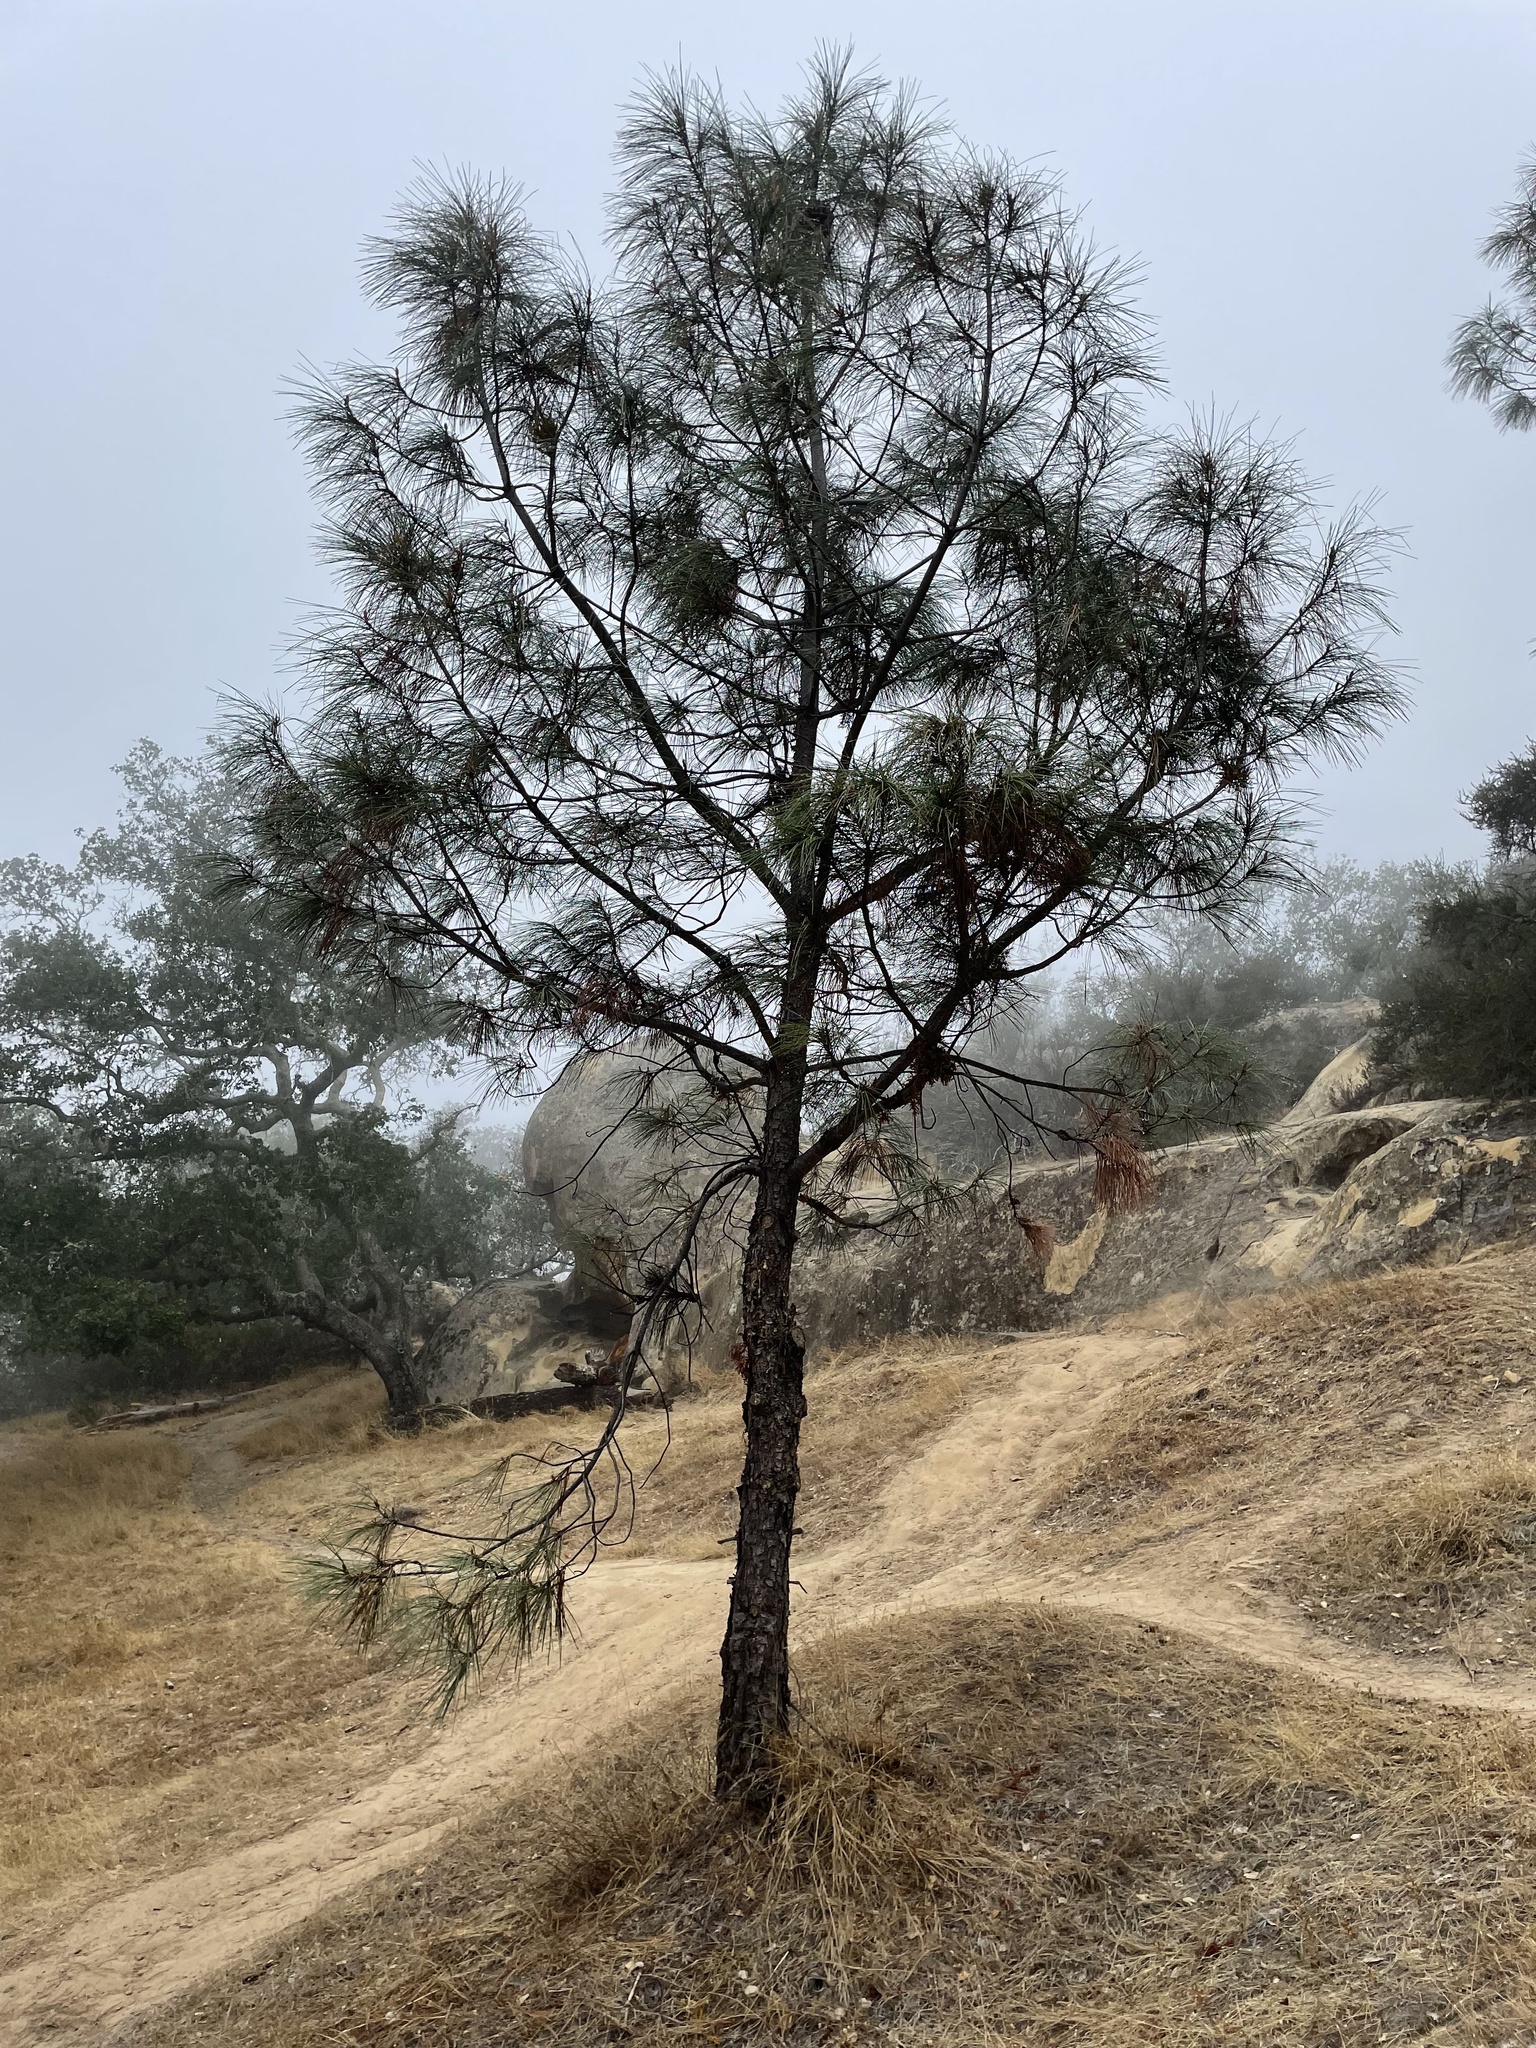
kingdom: Plantae
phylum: Tracheophyta
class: Pinopsida
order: Pinales
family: Pinaceae
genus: Pinus
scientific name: Pinus sabiniana
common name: Bull pine
